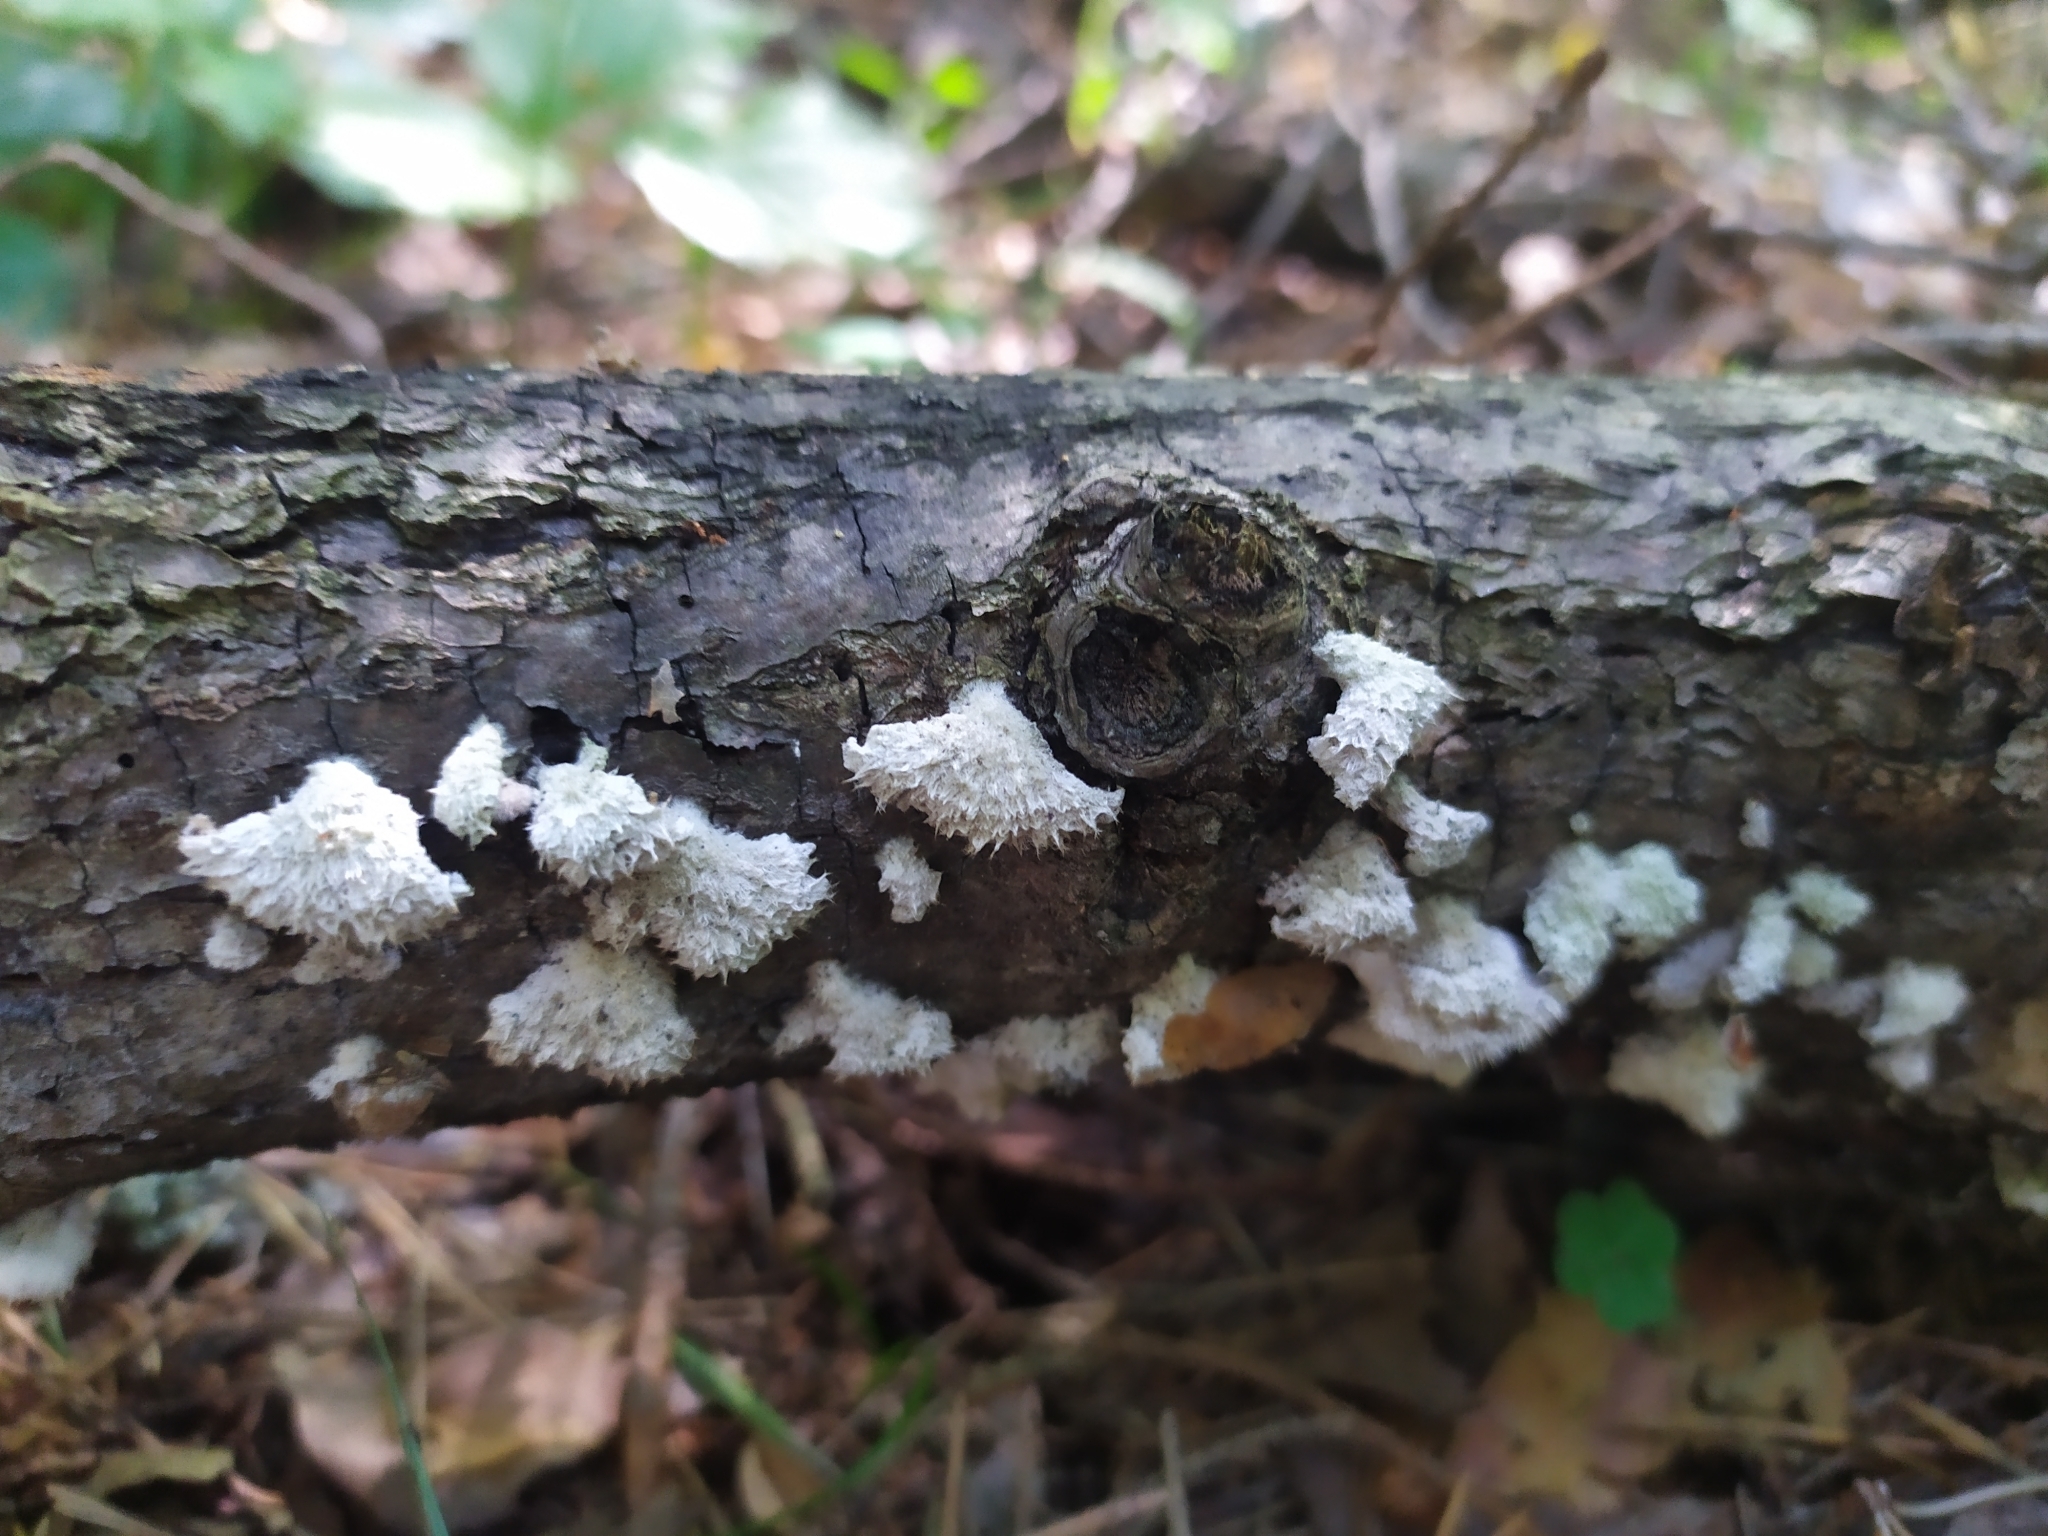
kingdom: Fungi
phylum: Basidiomycota
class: Agaricomycetes
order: Agaricales
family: Schizophyllaceae
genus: Schizophyllum
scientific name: Schizophyllum commune
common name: Common porecrust
